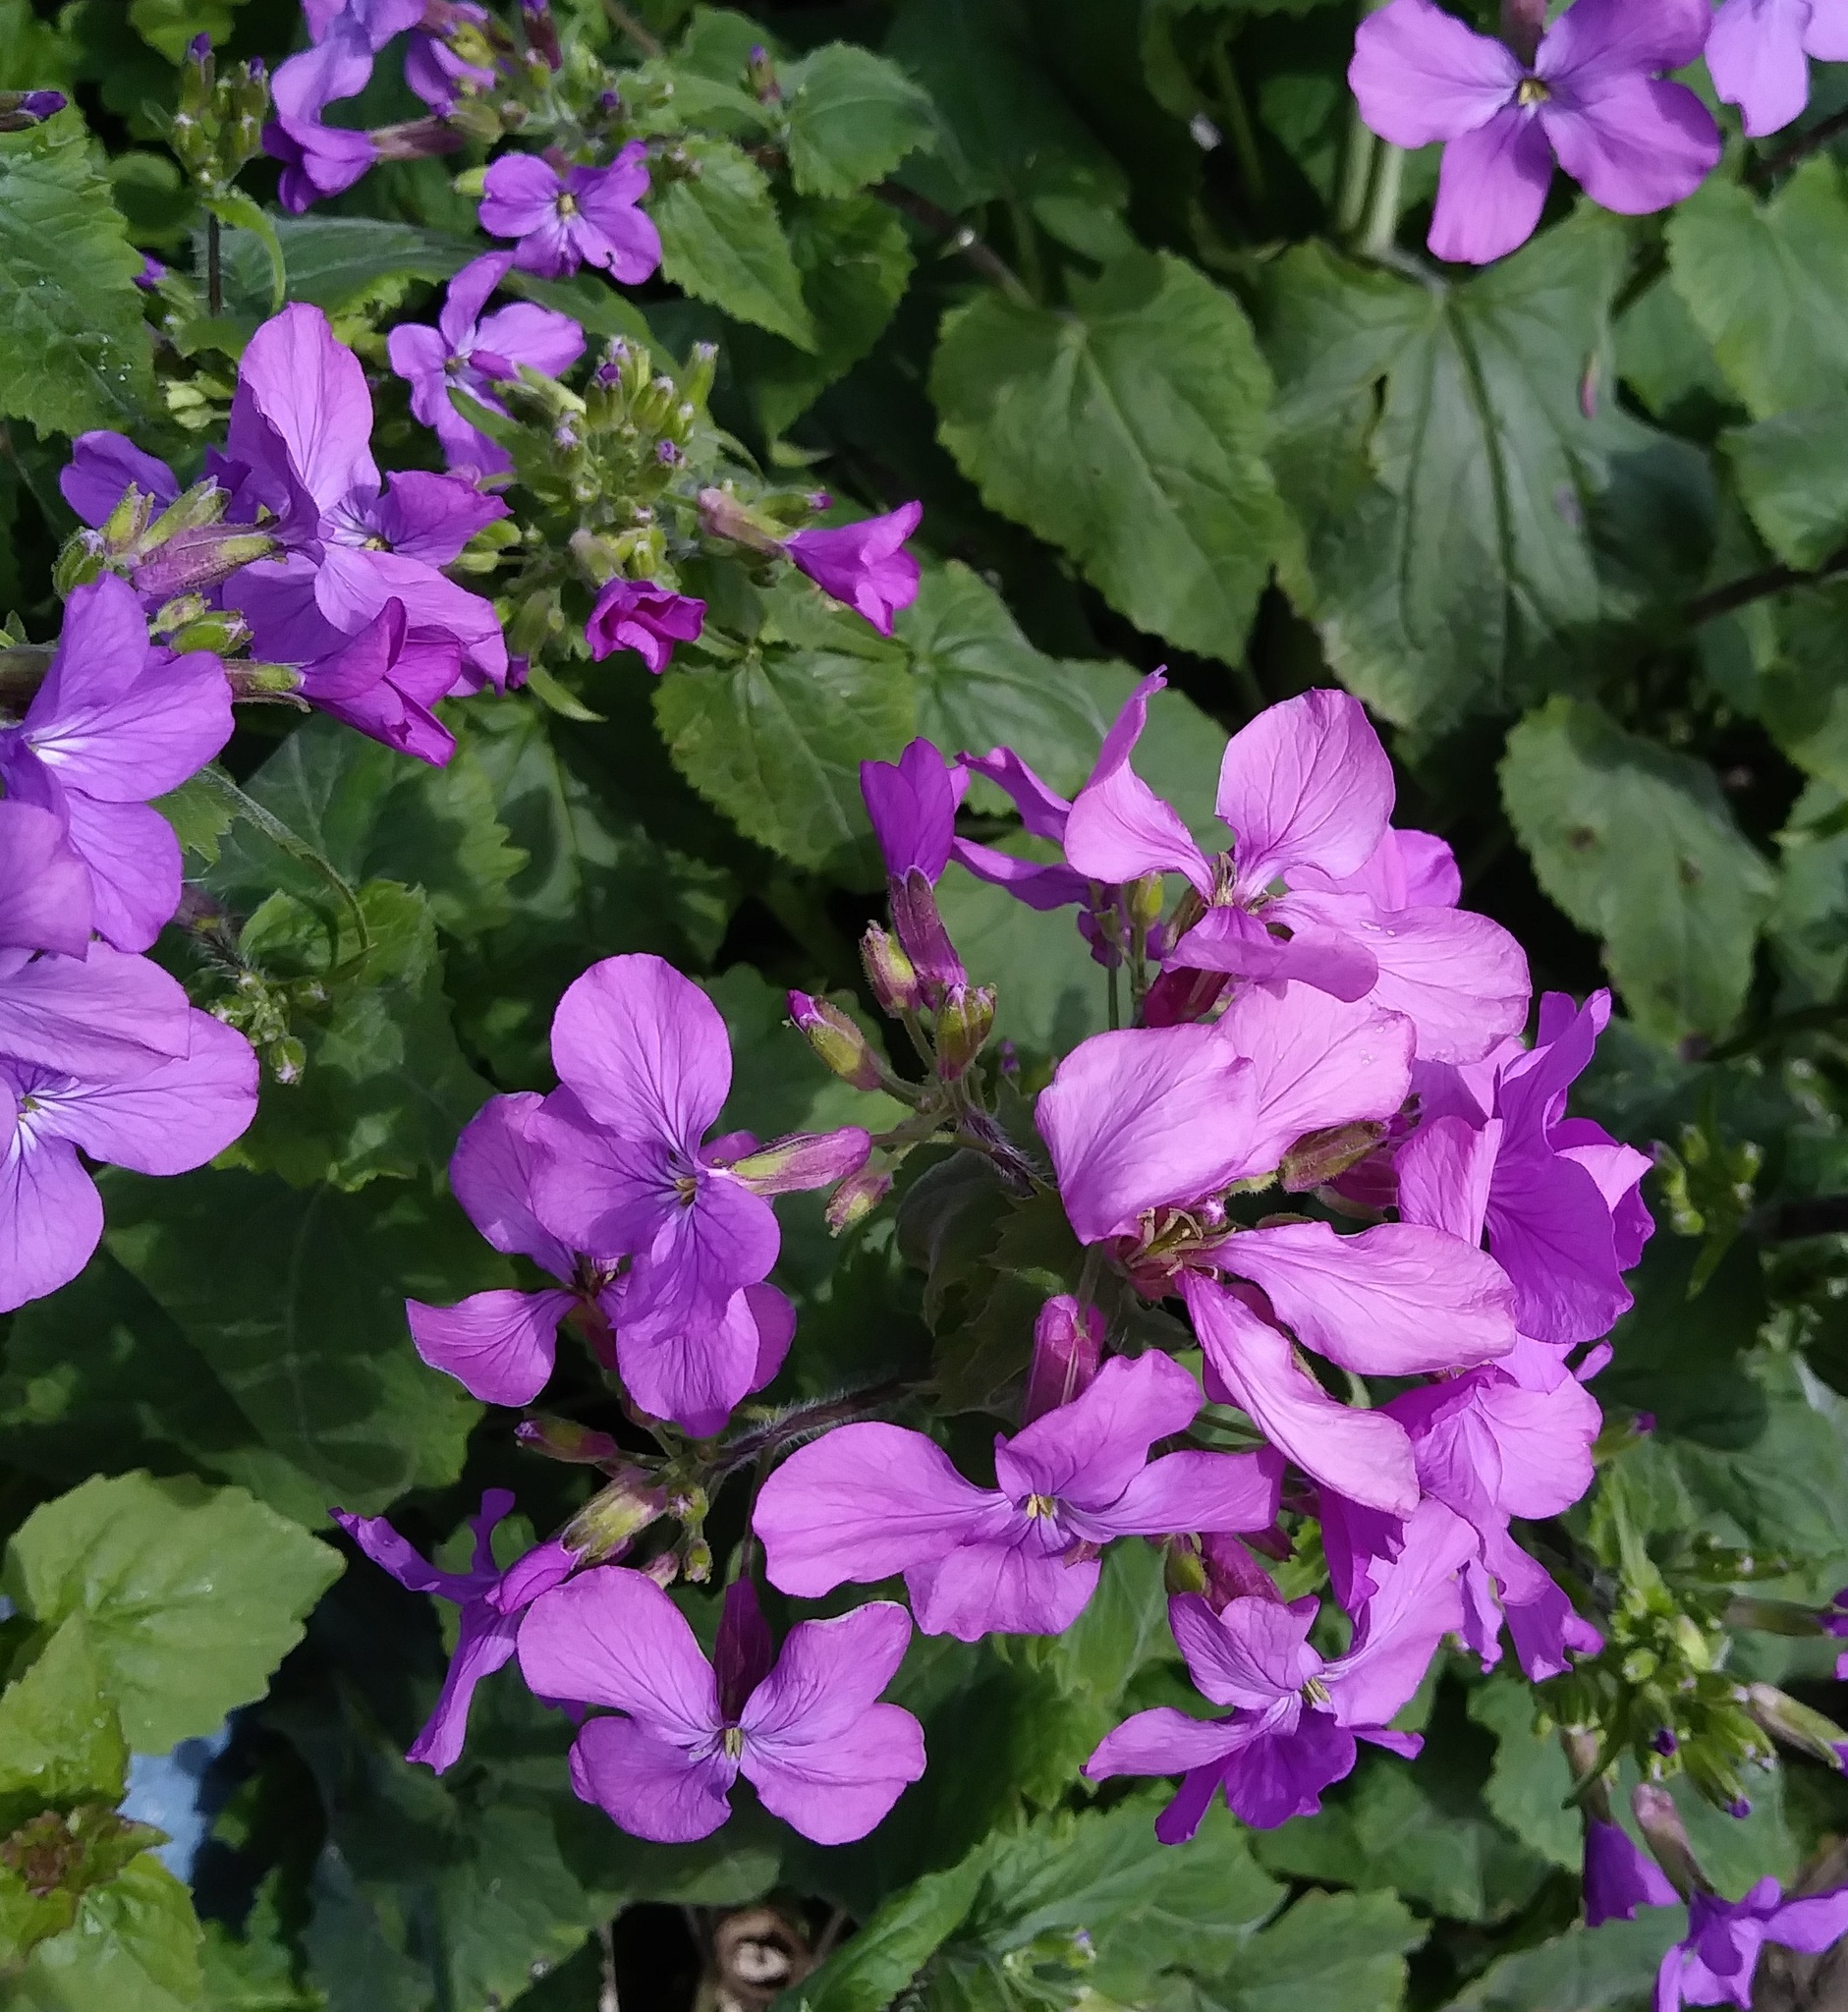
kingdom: Plantae
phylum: Tracheophyta
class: Magnoliopsida
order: Brassicales
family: Brassicaceae
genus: Lunaria
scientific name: Lunaria annua
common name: Honesty
